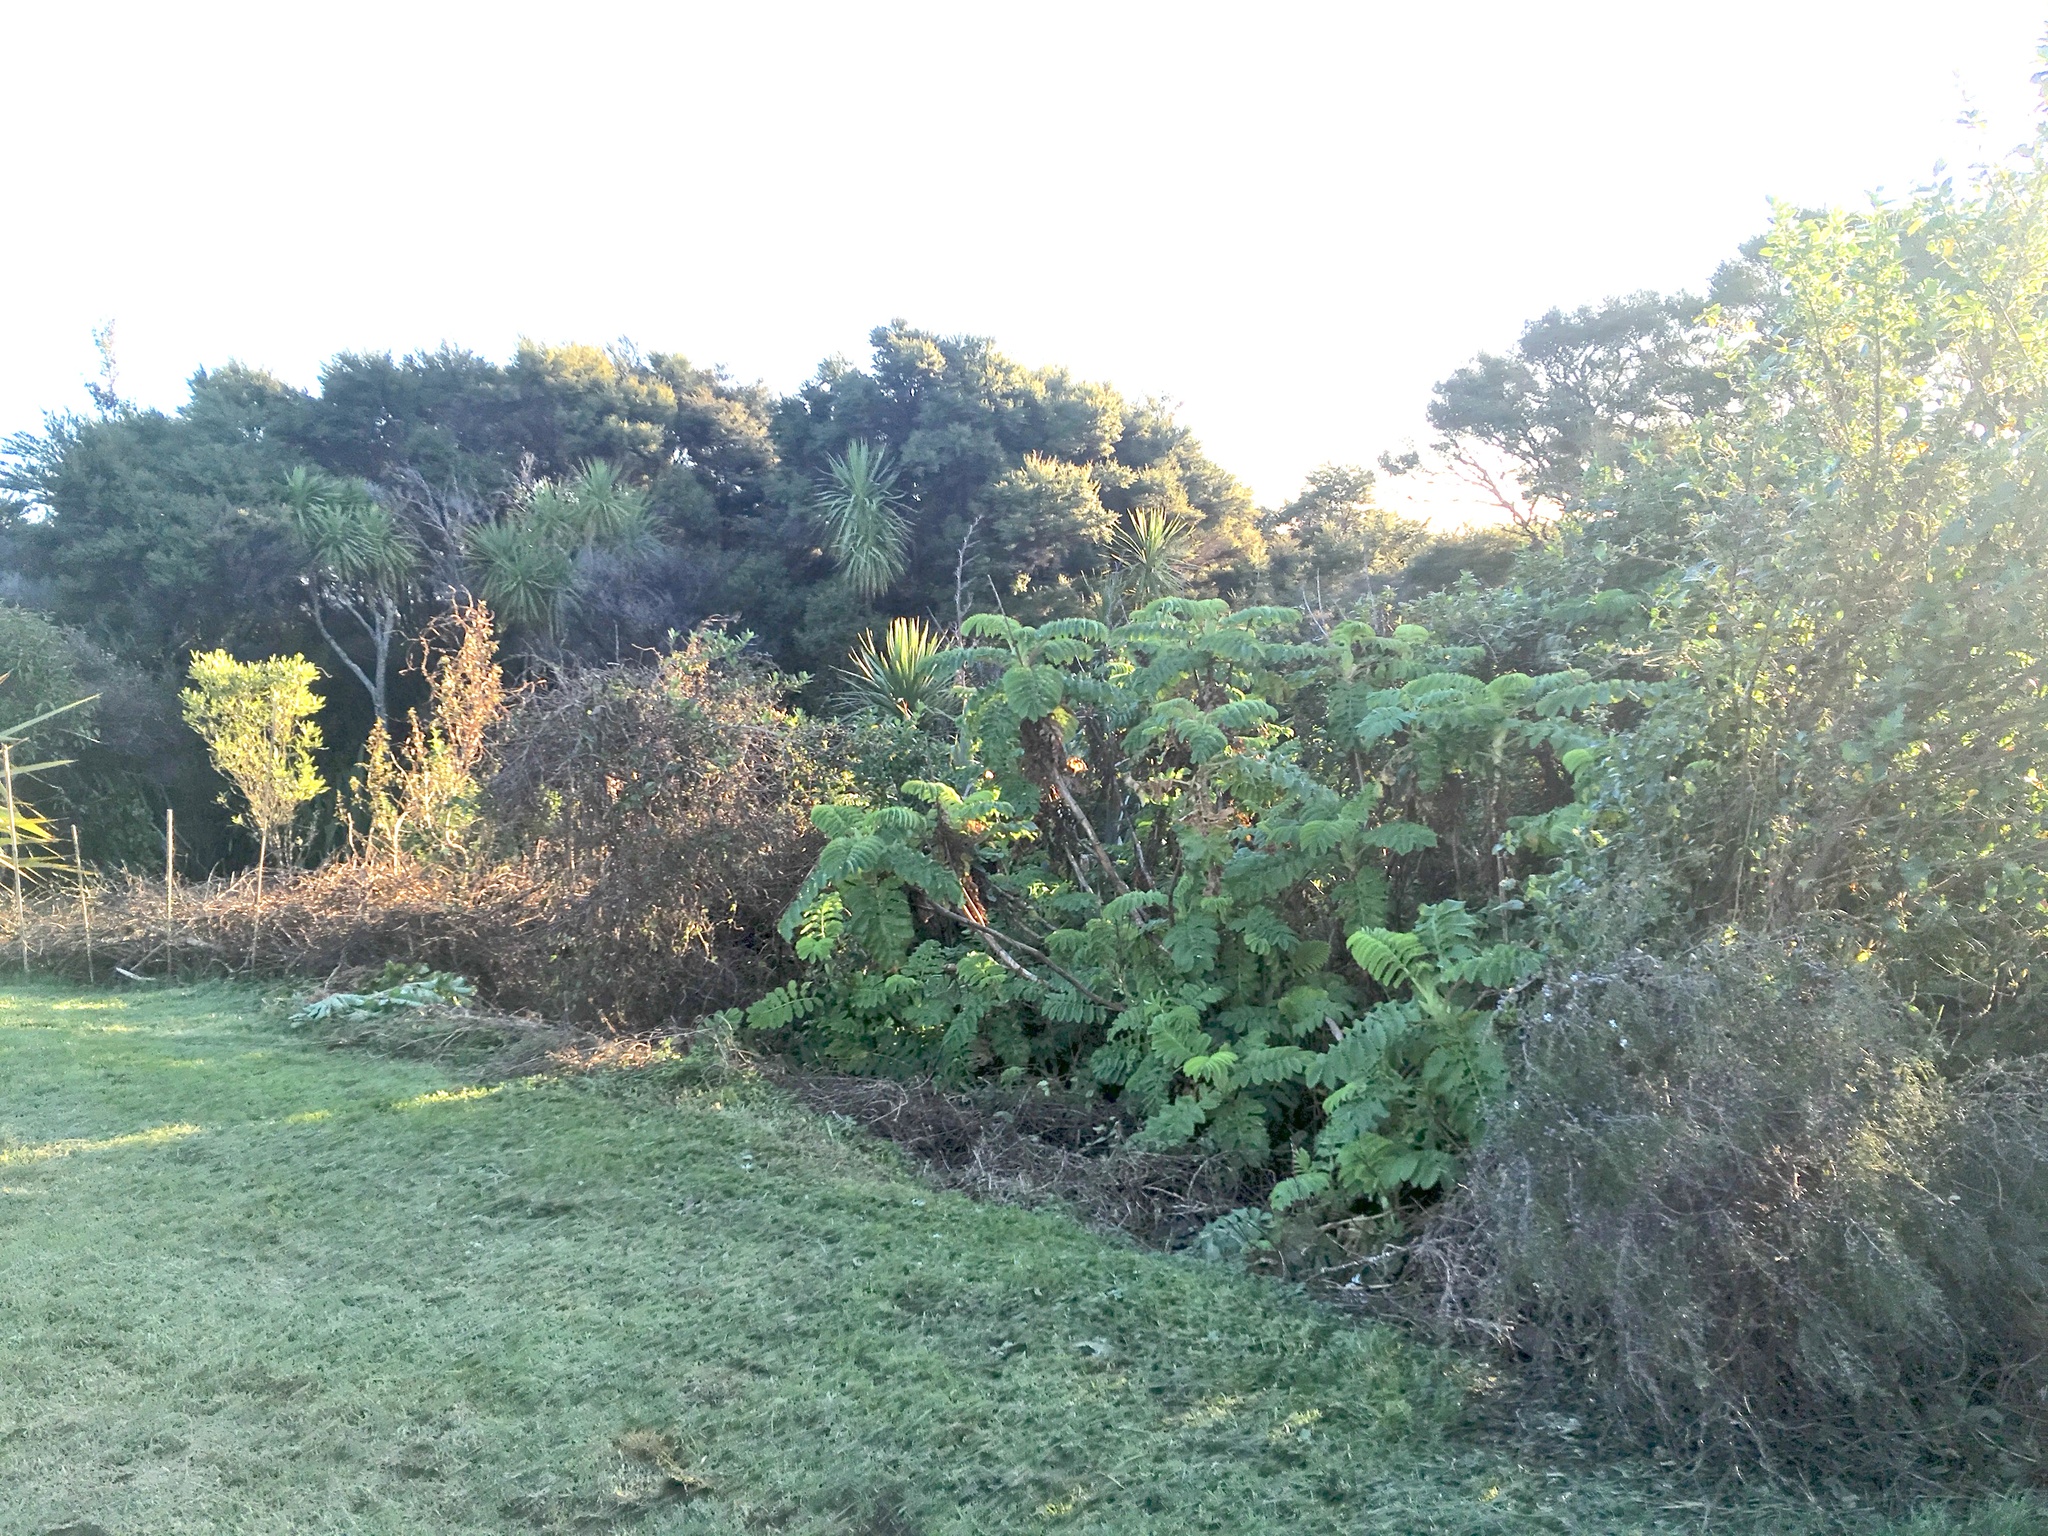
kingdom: Plantae
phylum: Tracheophyta
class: Magnoliopsida
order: Geraniales
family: Melianthaceae
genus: Melianthus
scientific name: Melianthus major
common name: Honey-flower
